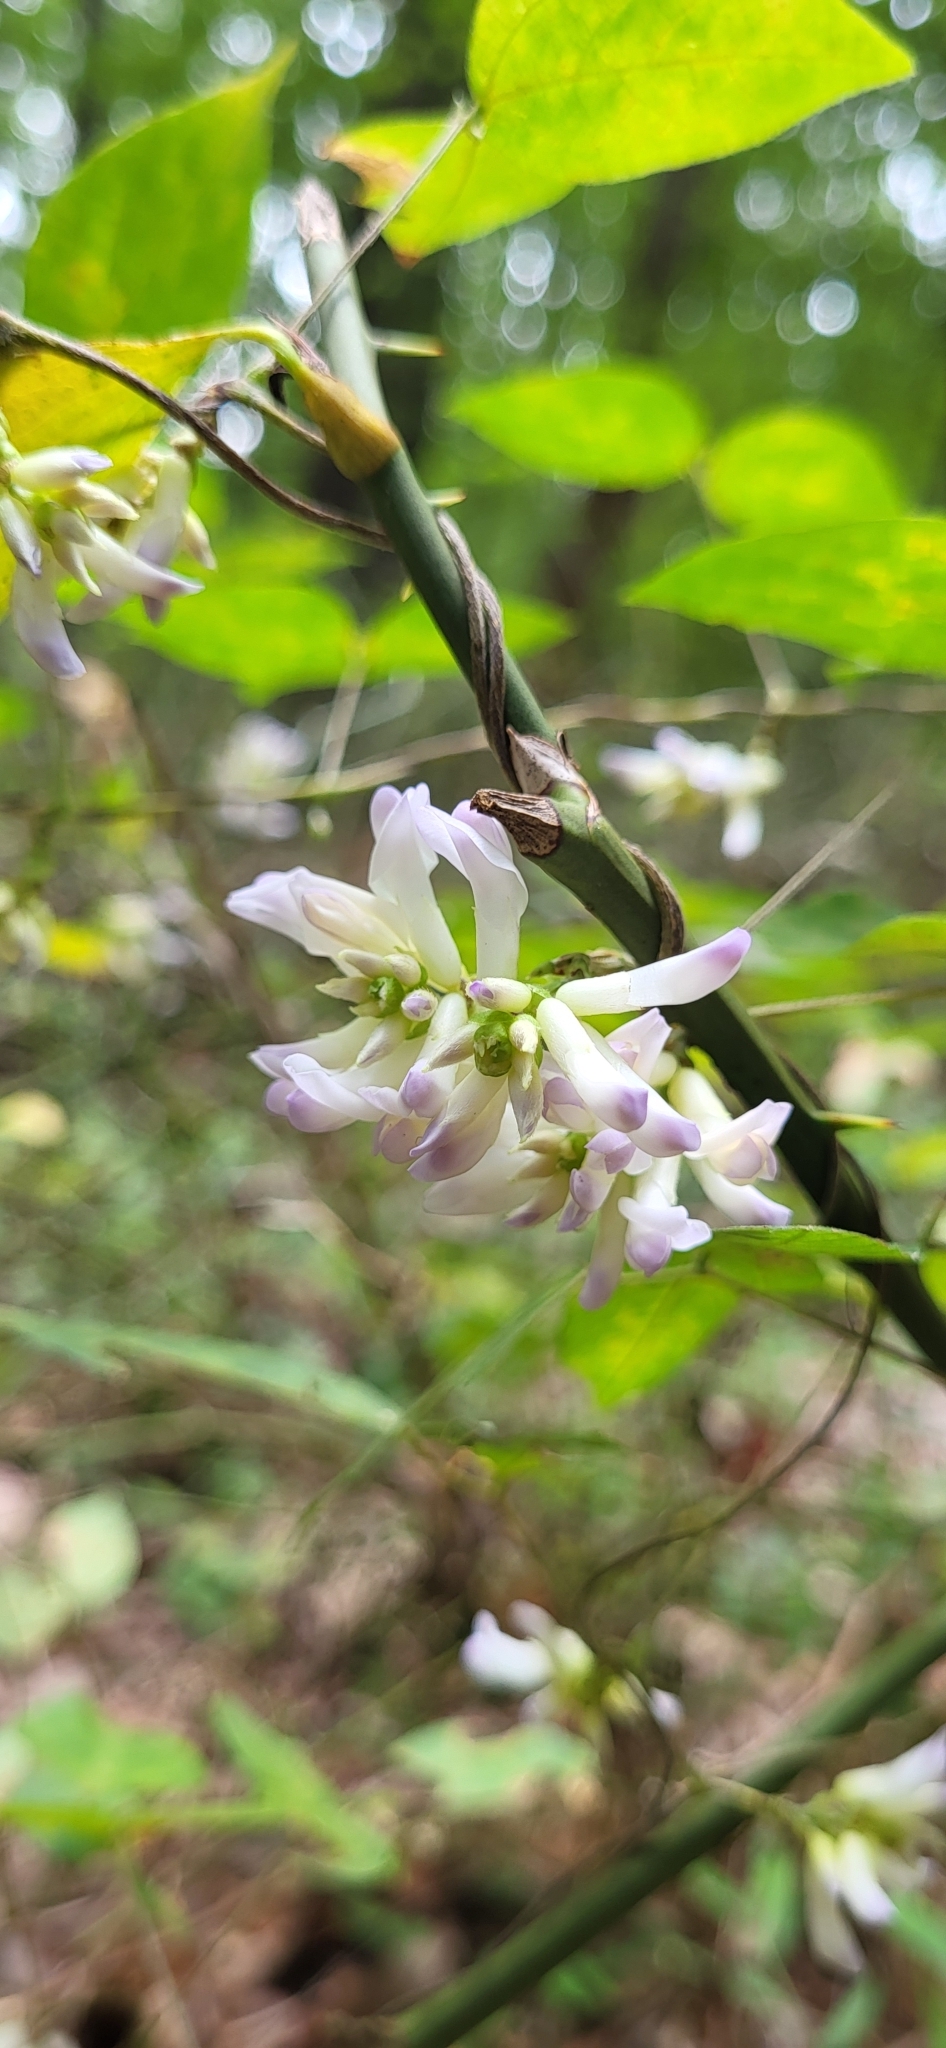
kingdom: Plantae
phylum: Tracheophyta
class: Magnoliopsida
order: Fabales
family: Fabaceae
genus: Amphicarpaea
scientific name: Amphicarpaea bracteata
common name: American hog peanut
